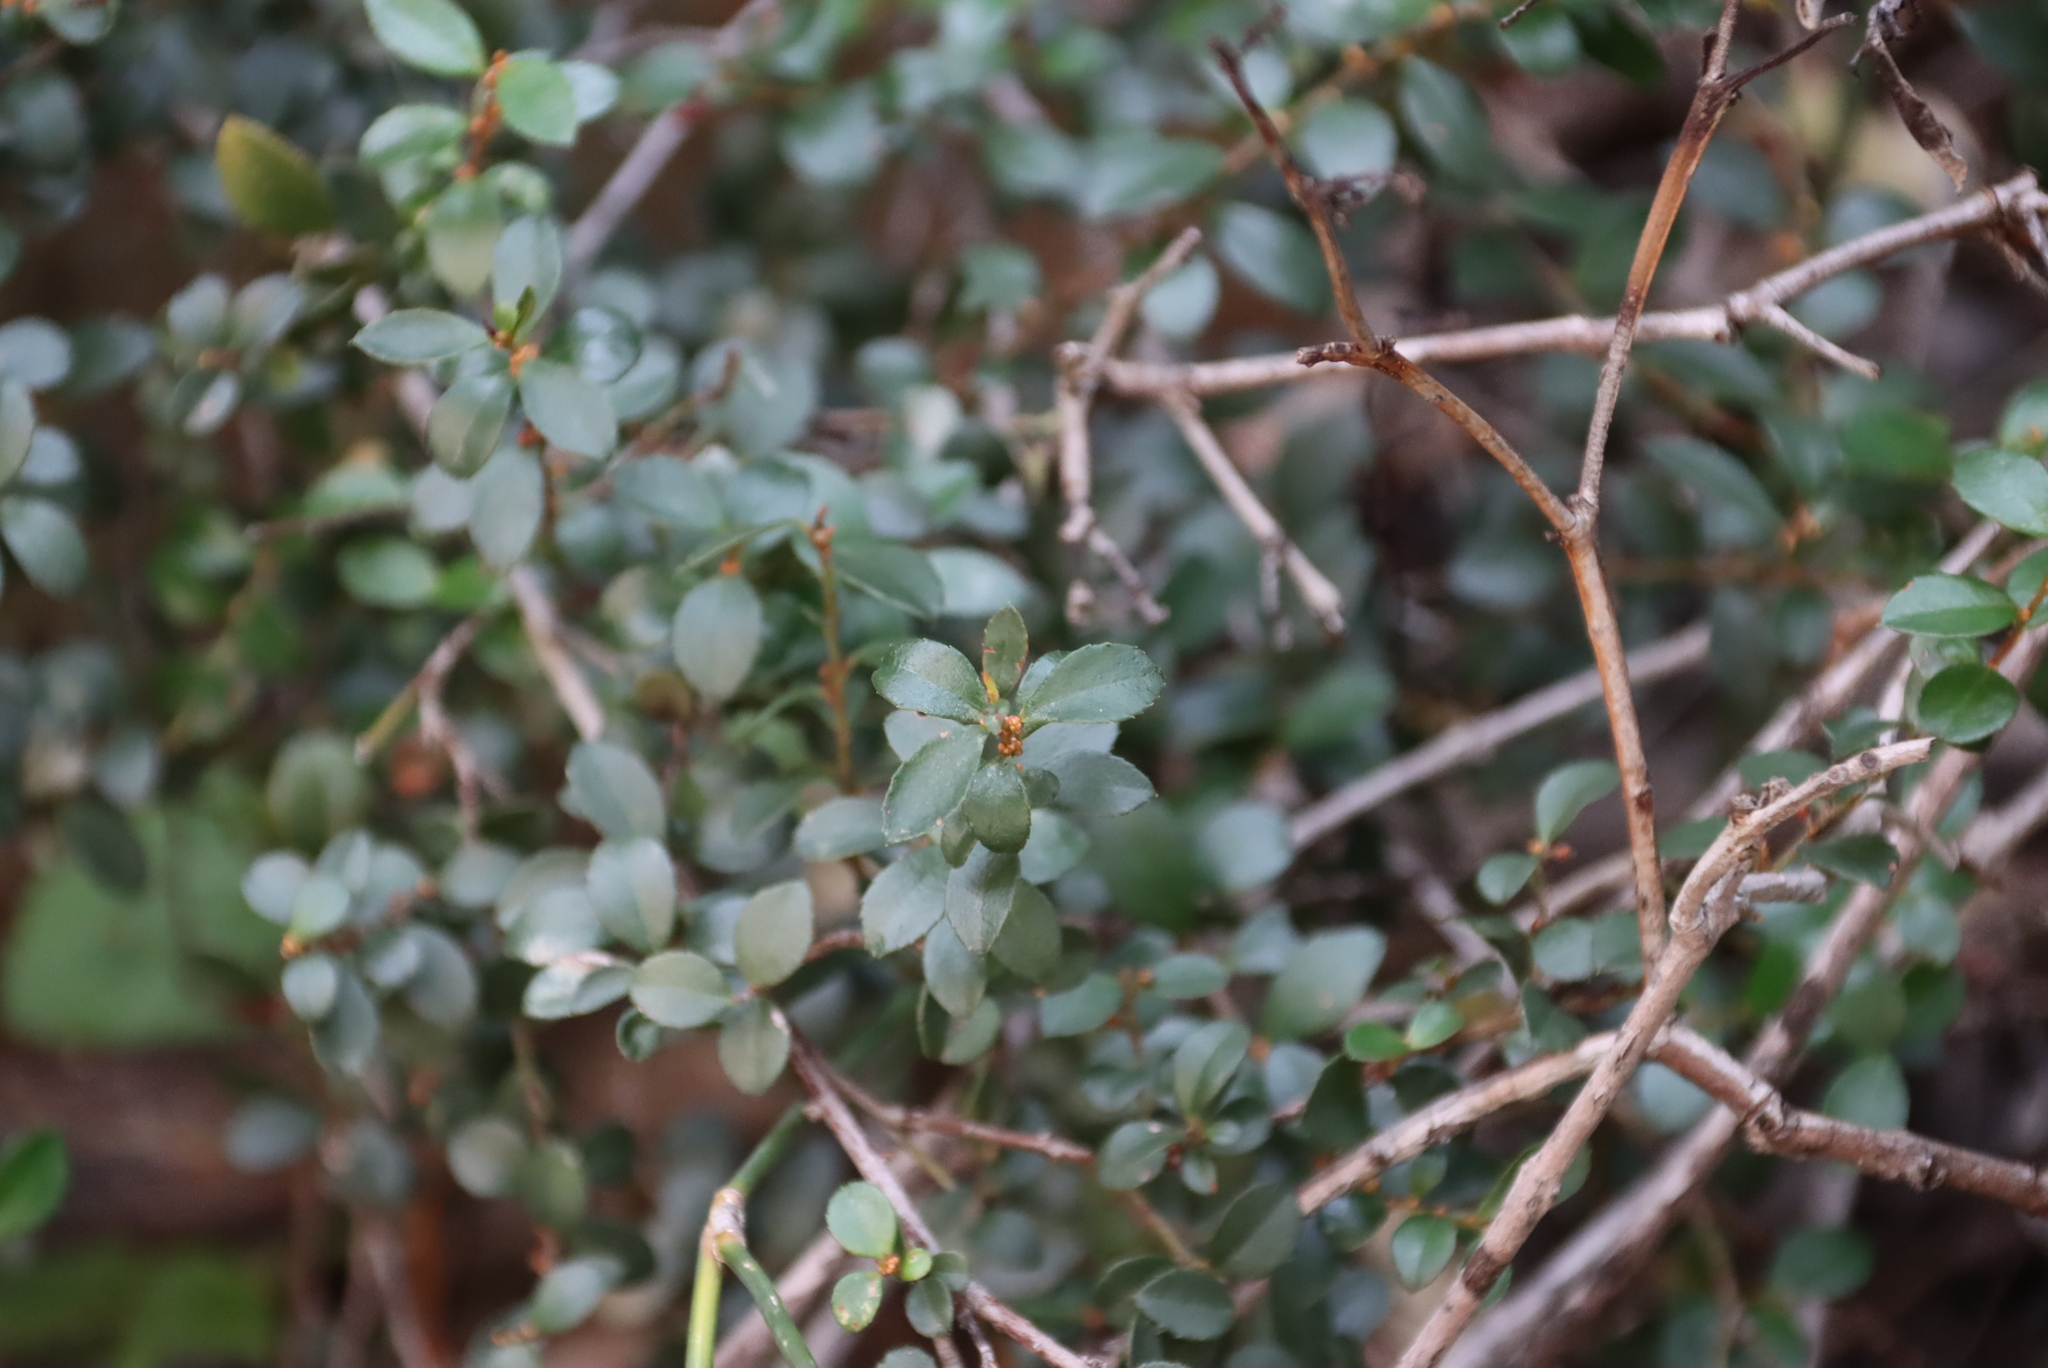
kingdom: Plantae
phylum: Tracheophyta
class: Magnoliopsida
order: Ericales
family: Primulaceae
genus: Myrsine
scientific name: Myrsine africana
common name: African-boxwood
